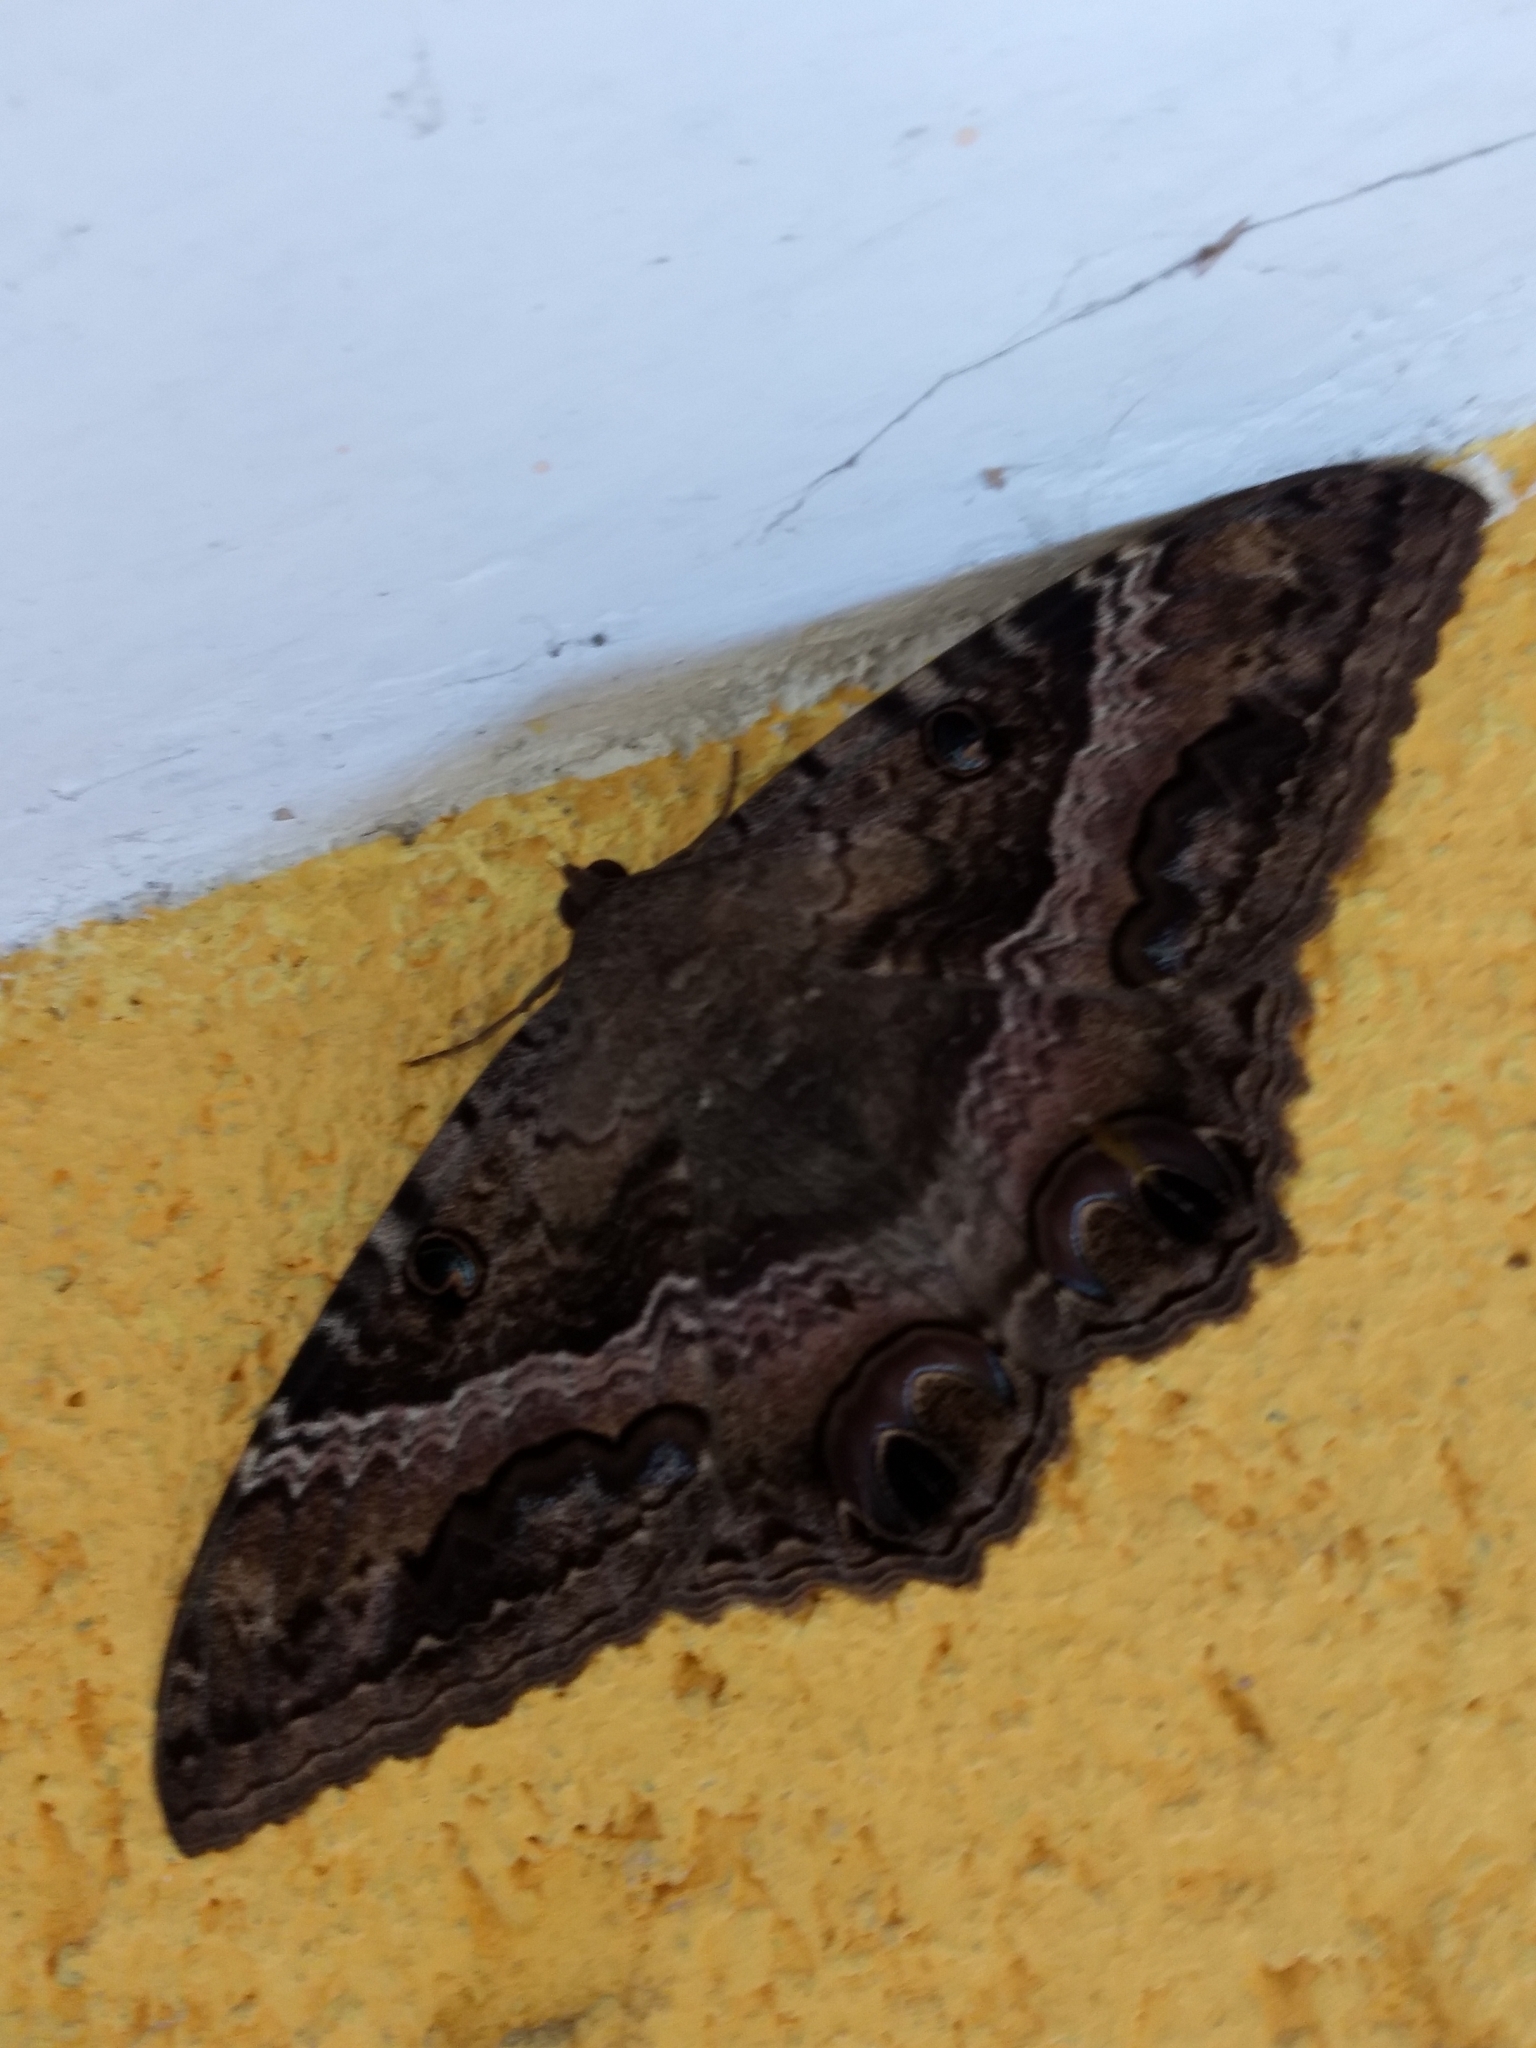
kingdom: Animalia
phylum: Arthropoda
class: Insecta
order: Lepidoptera
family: Erebidae
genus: Ascalapha
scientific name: Ascalapha odorata
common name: Black witch
